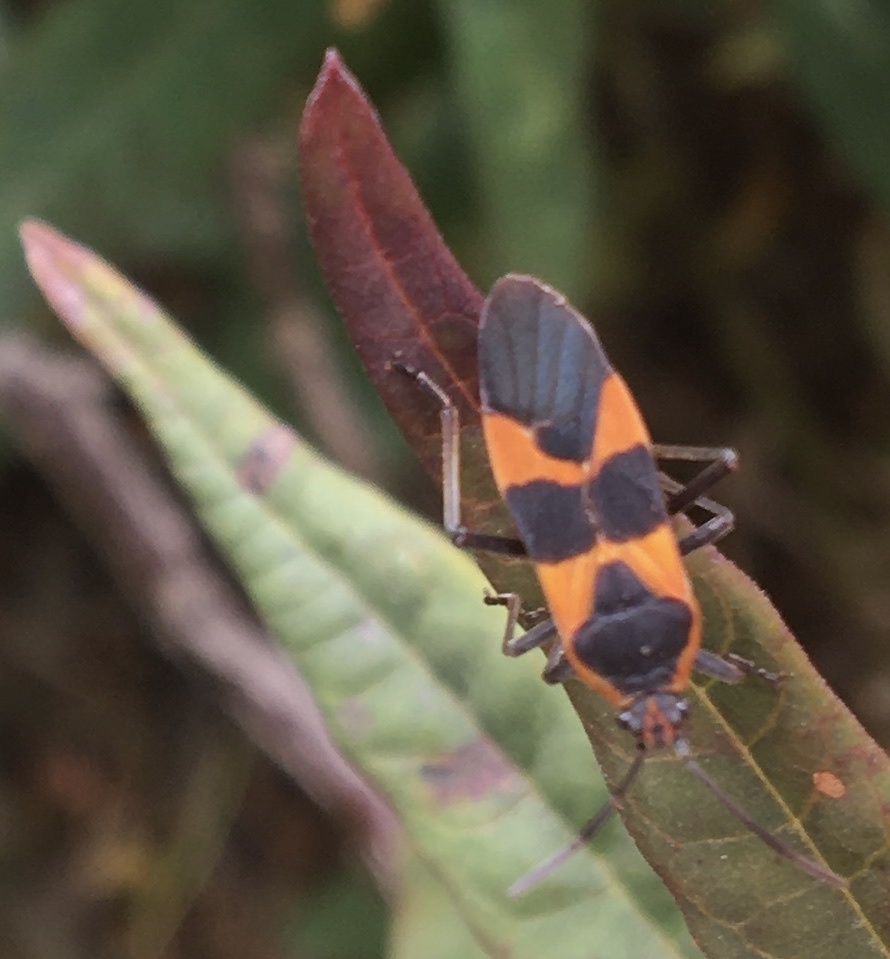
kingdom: Animalia
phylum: Arthropoda
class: Insecta
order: Hemiptera
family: Lygaeidae
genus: Oncopeltus
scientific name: Oncopeltus fasciatus
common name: Large milkweed bug
